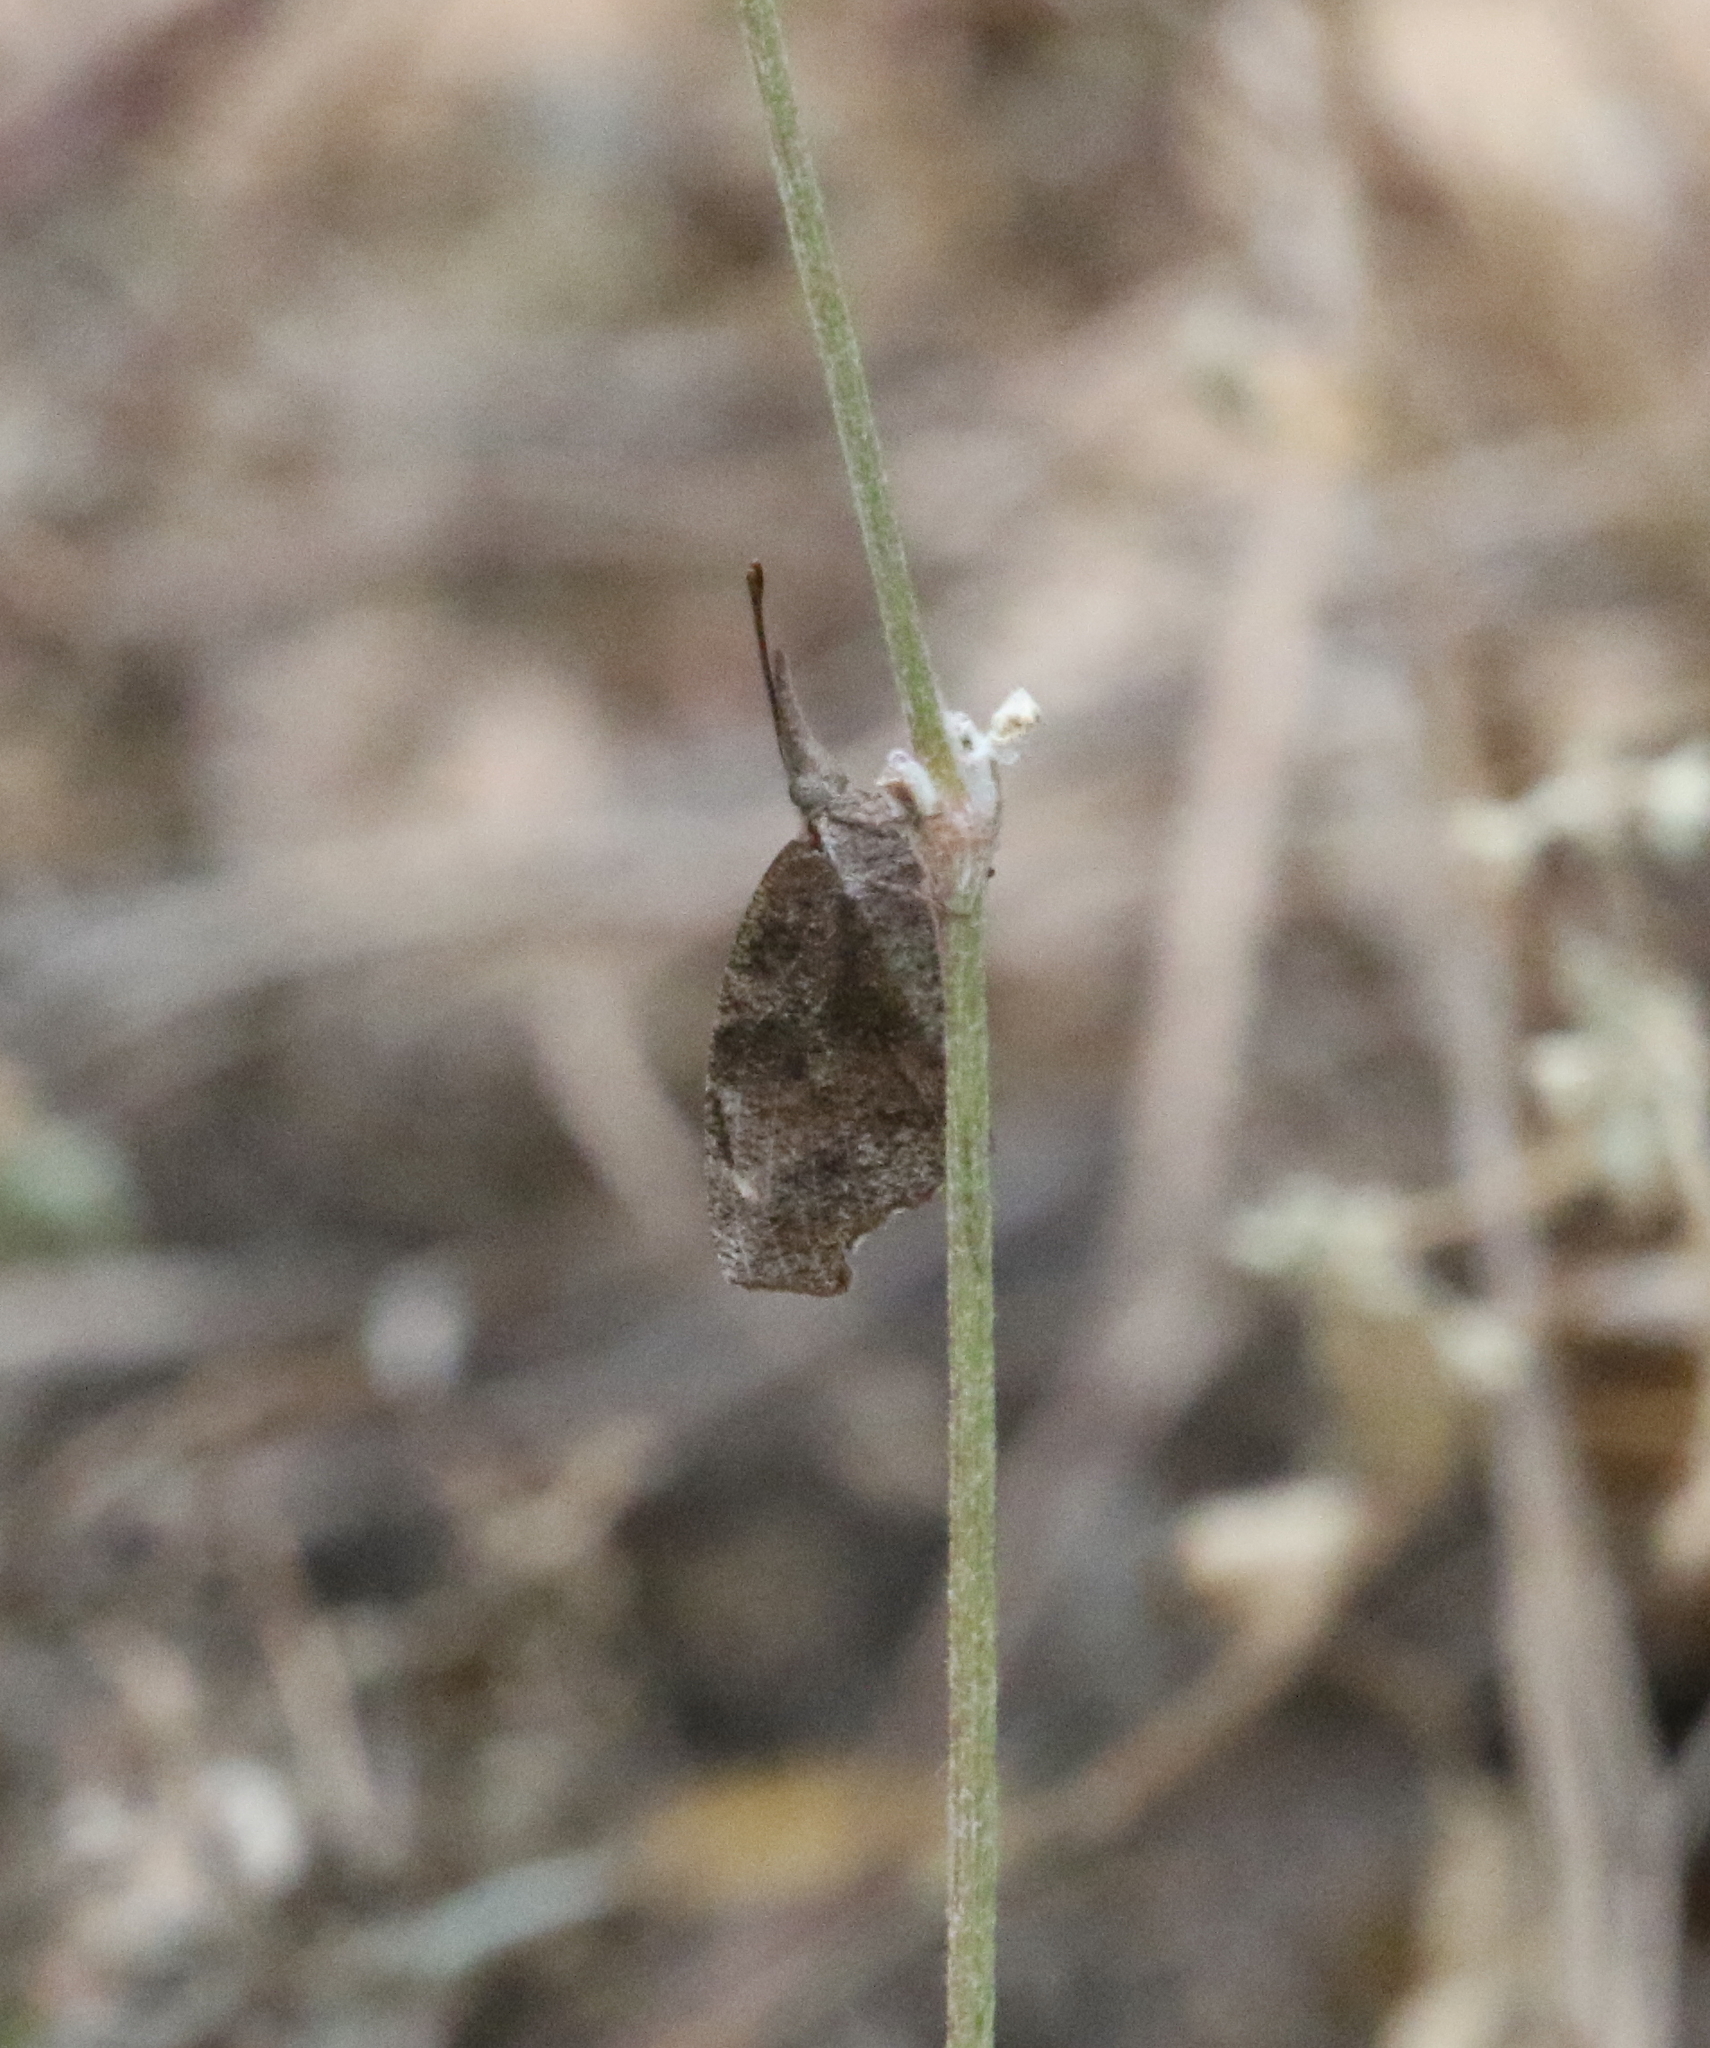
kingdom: Animalia
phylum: Arthropoda
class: Insecta
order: Lepidoptera
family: Nymphalidae
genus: Libytheana
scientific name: Libytheana carinenta
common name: American snout
